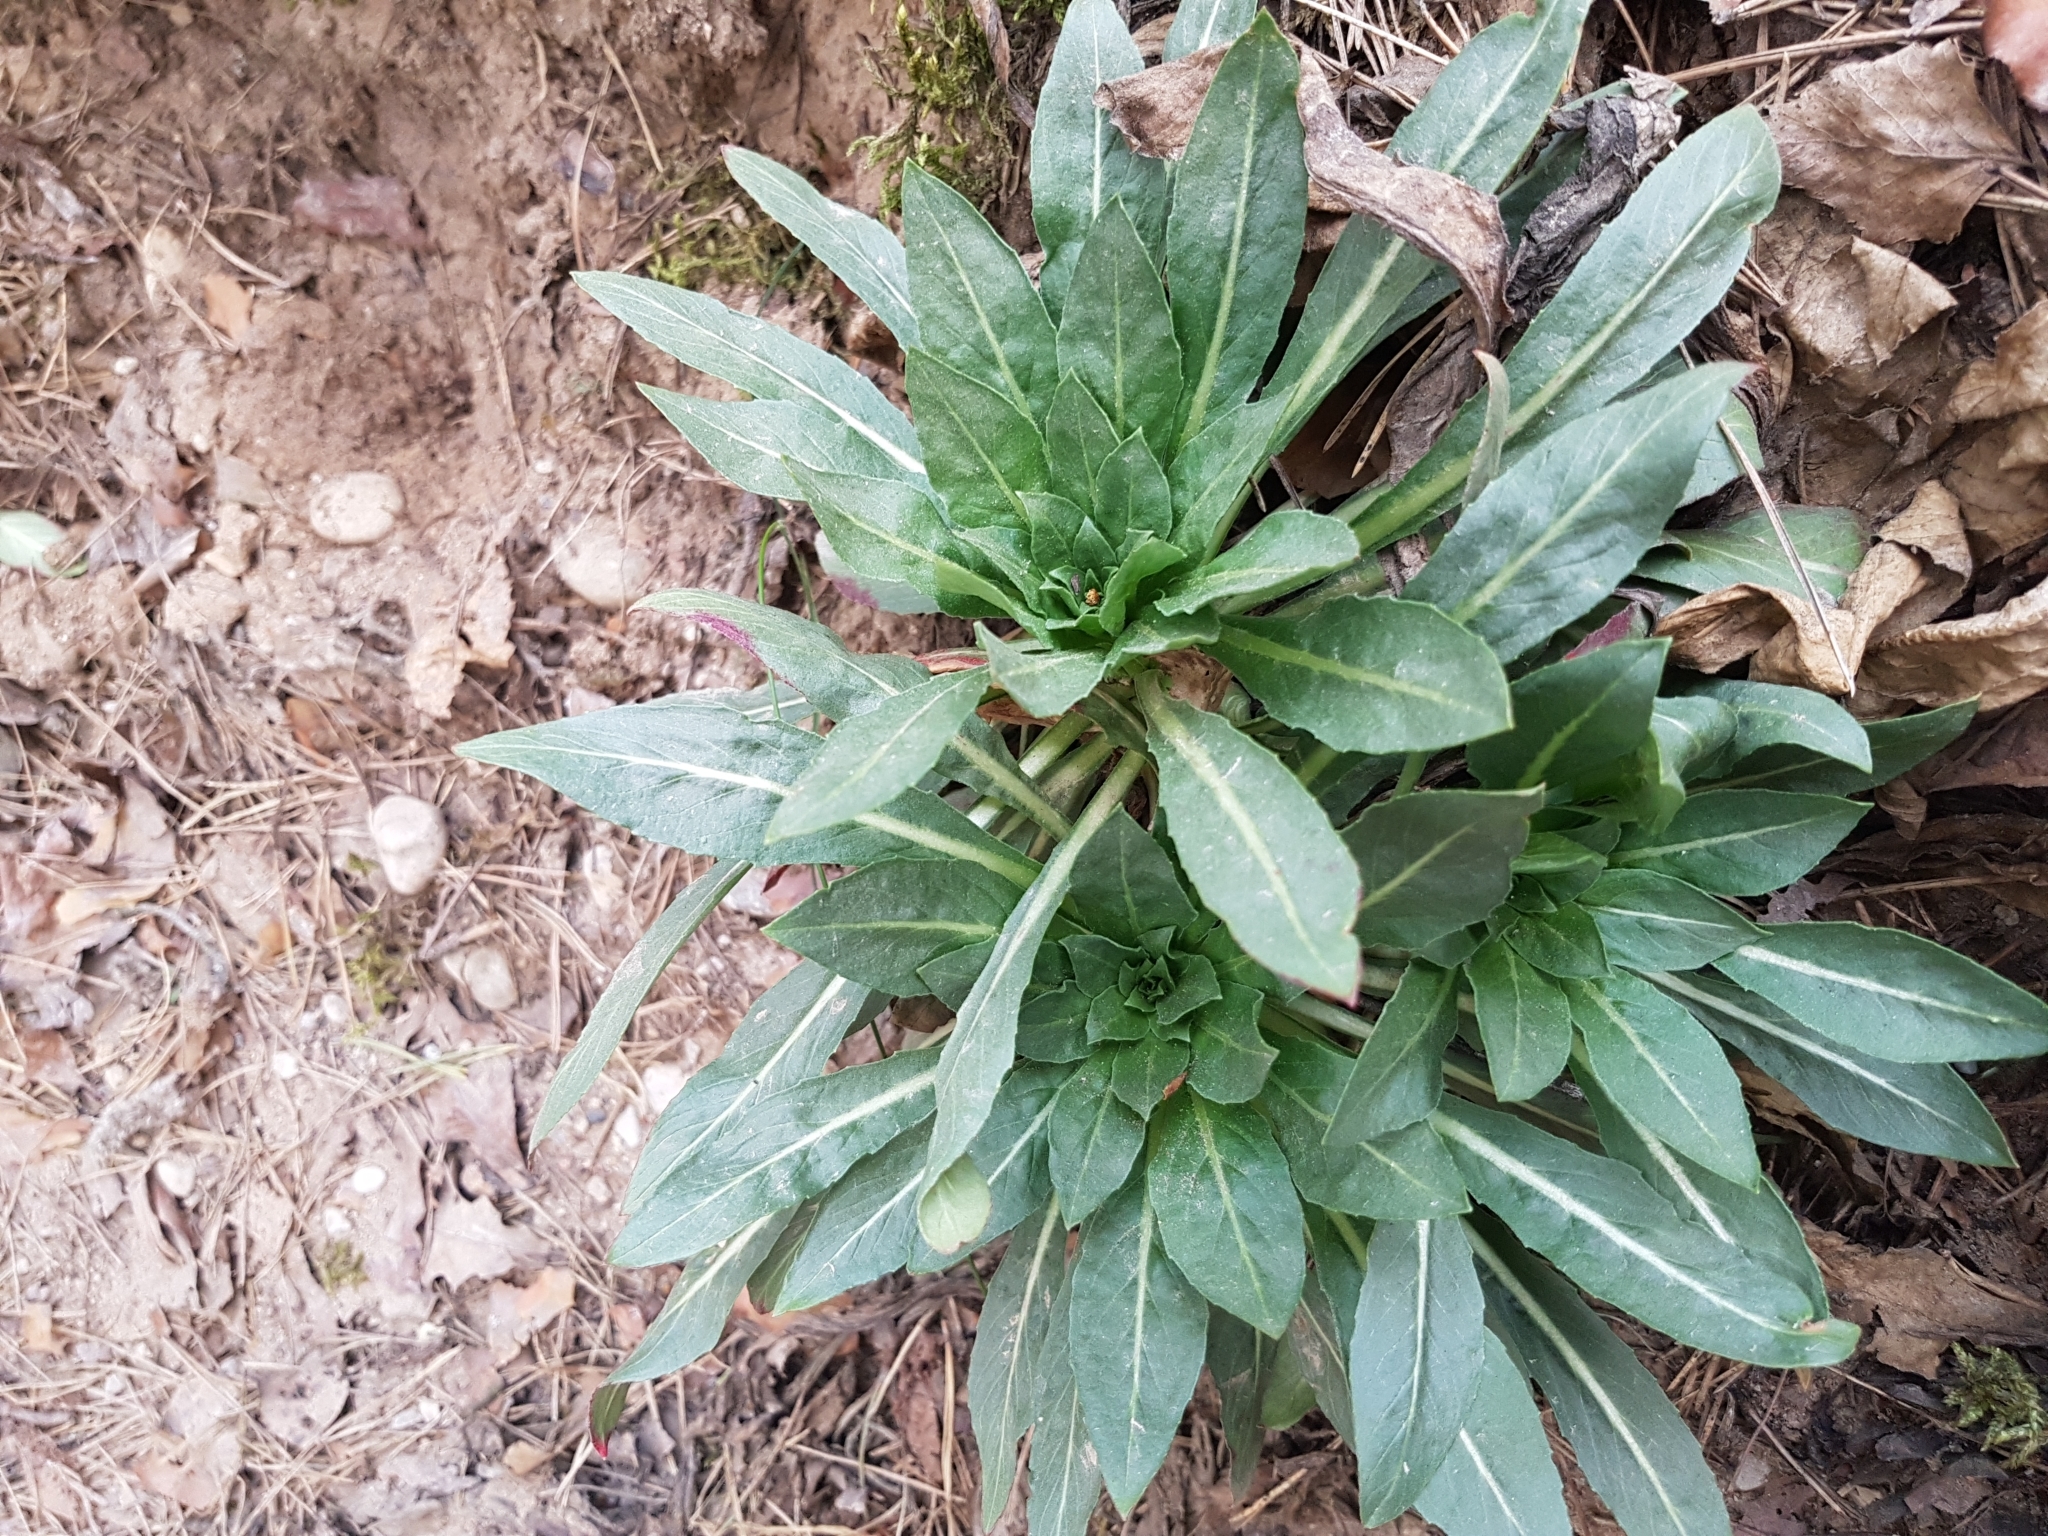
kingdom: Plantae
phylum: Tracheophyta
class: Magnoliopsida
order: Myrtales
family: Onagraceae
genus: Oenothera
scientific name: Oenothera biennis
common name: Common evening-primrose
